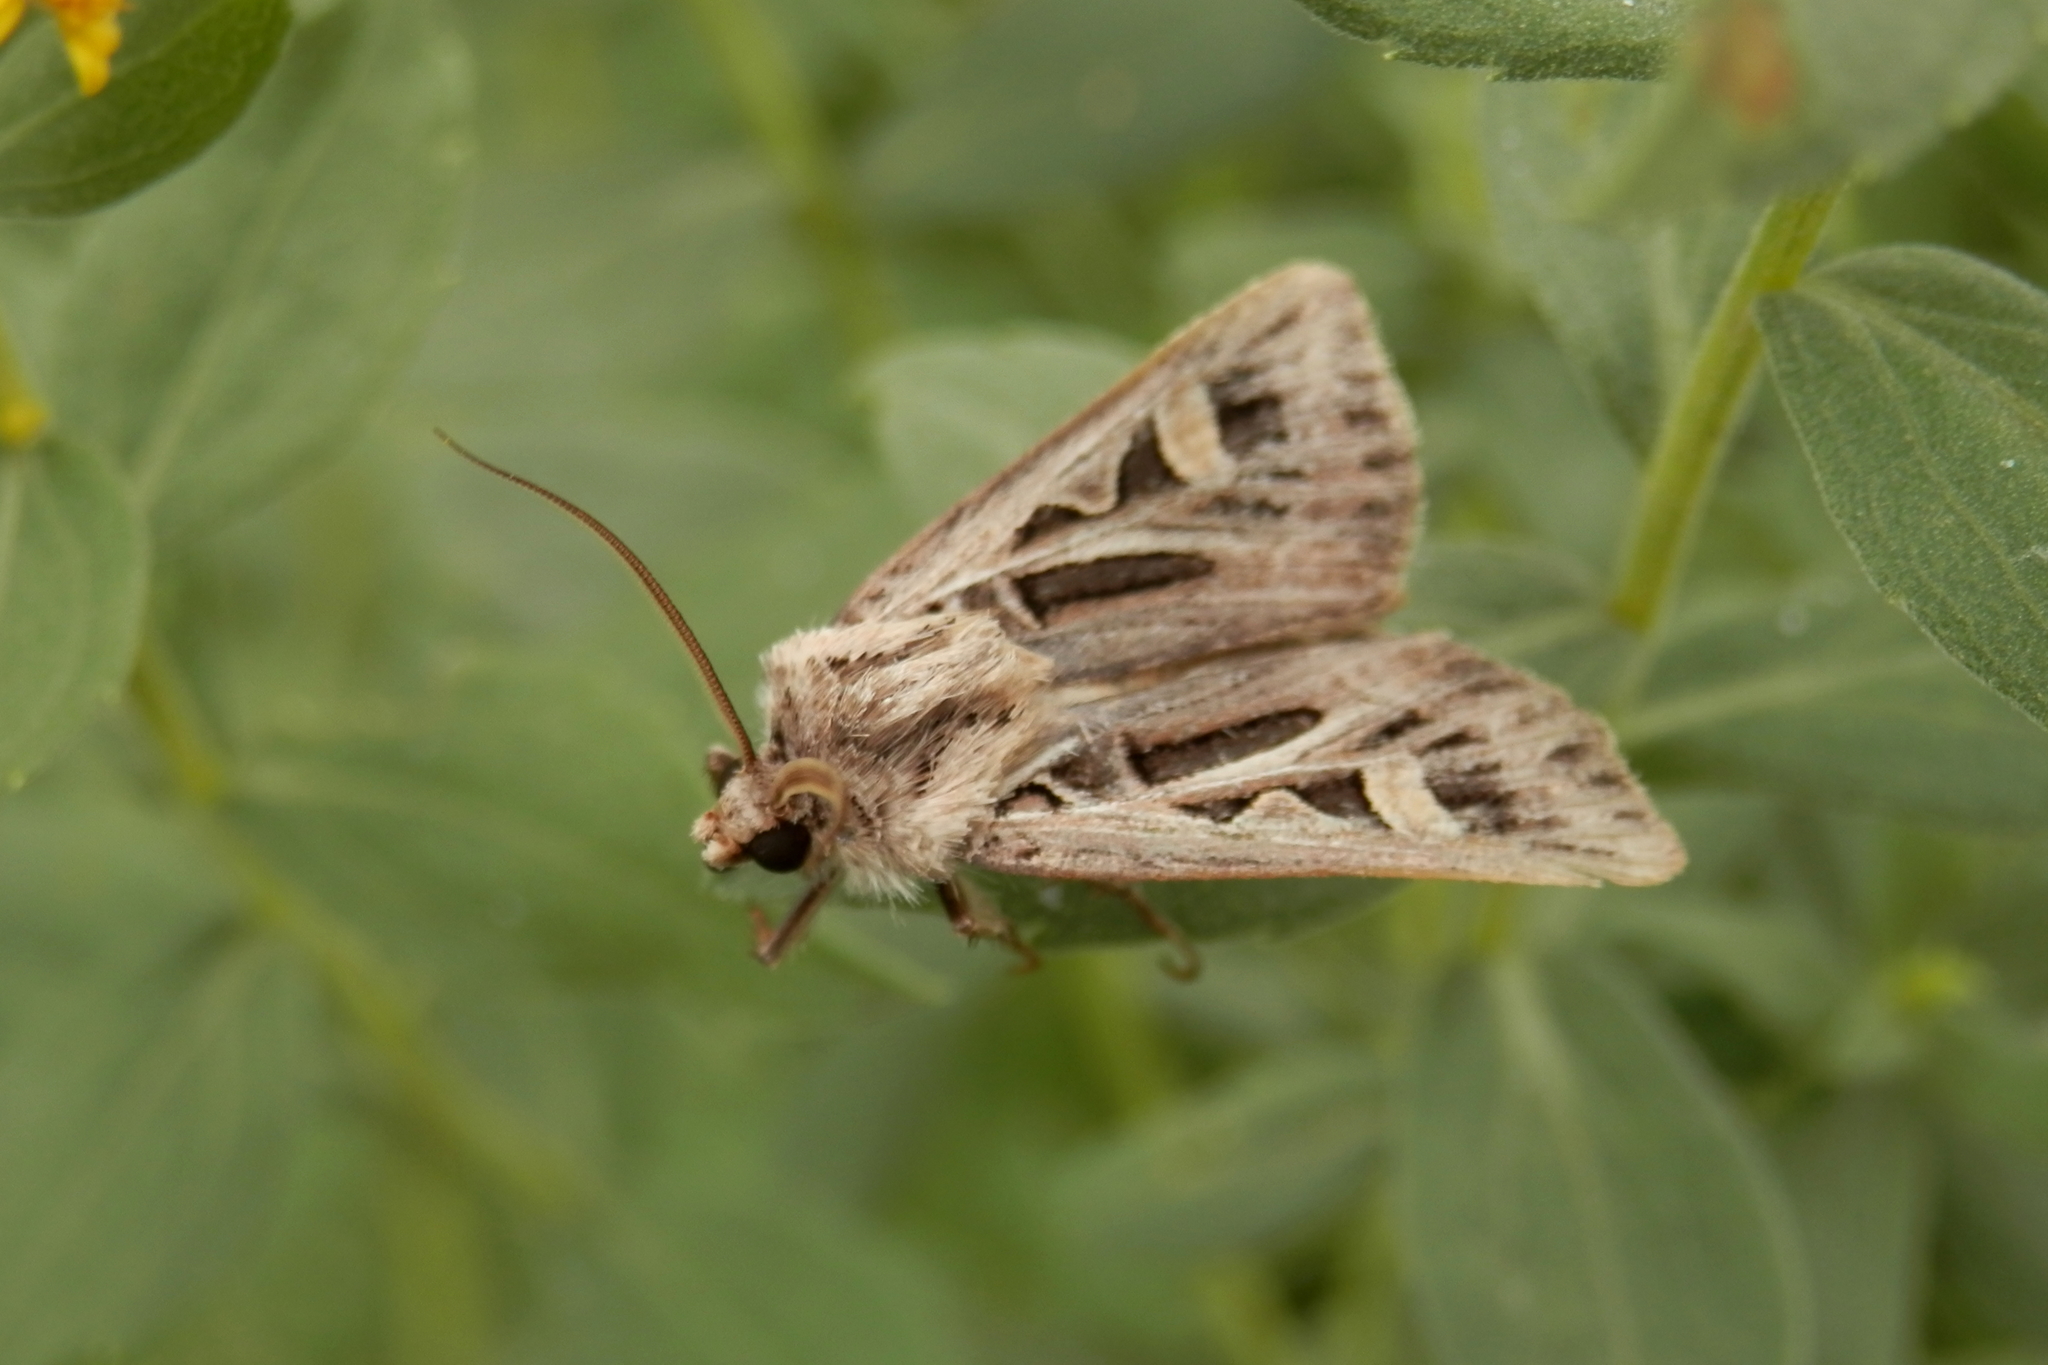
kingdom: Animalia
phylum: Arthropoda
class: Insecta
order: Lepidoptera
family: Noctuidae
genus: Feltia
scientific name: Feltia jaculifera
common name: Dingy cutworm moth
